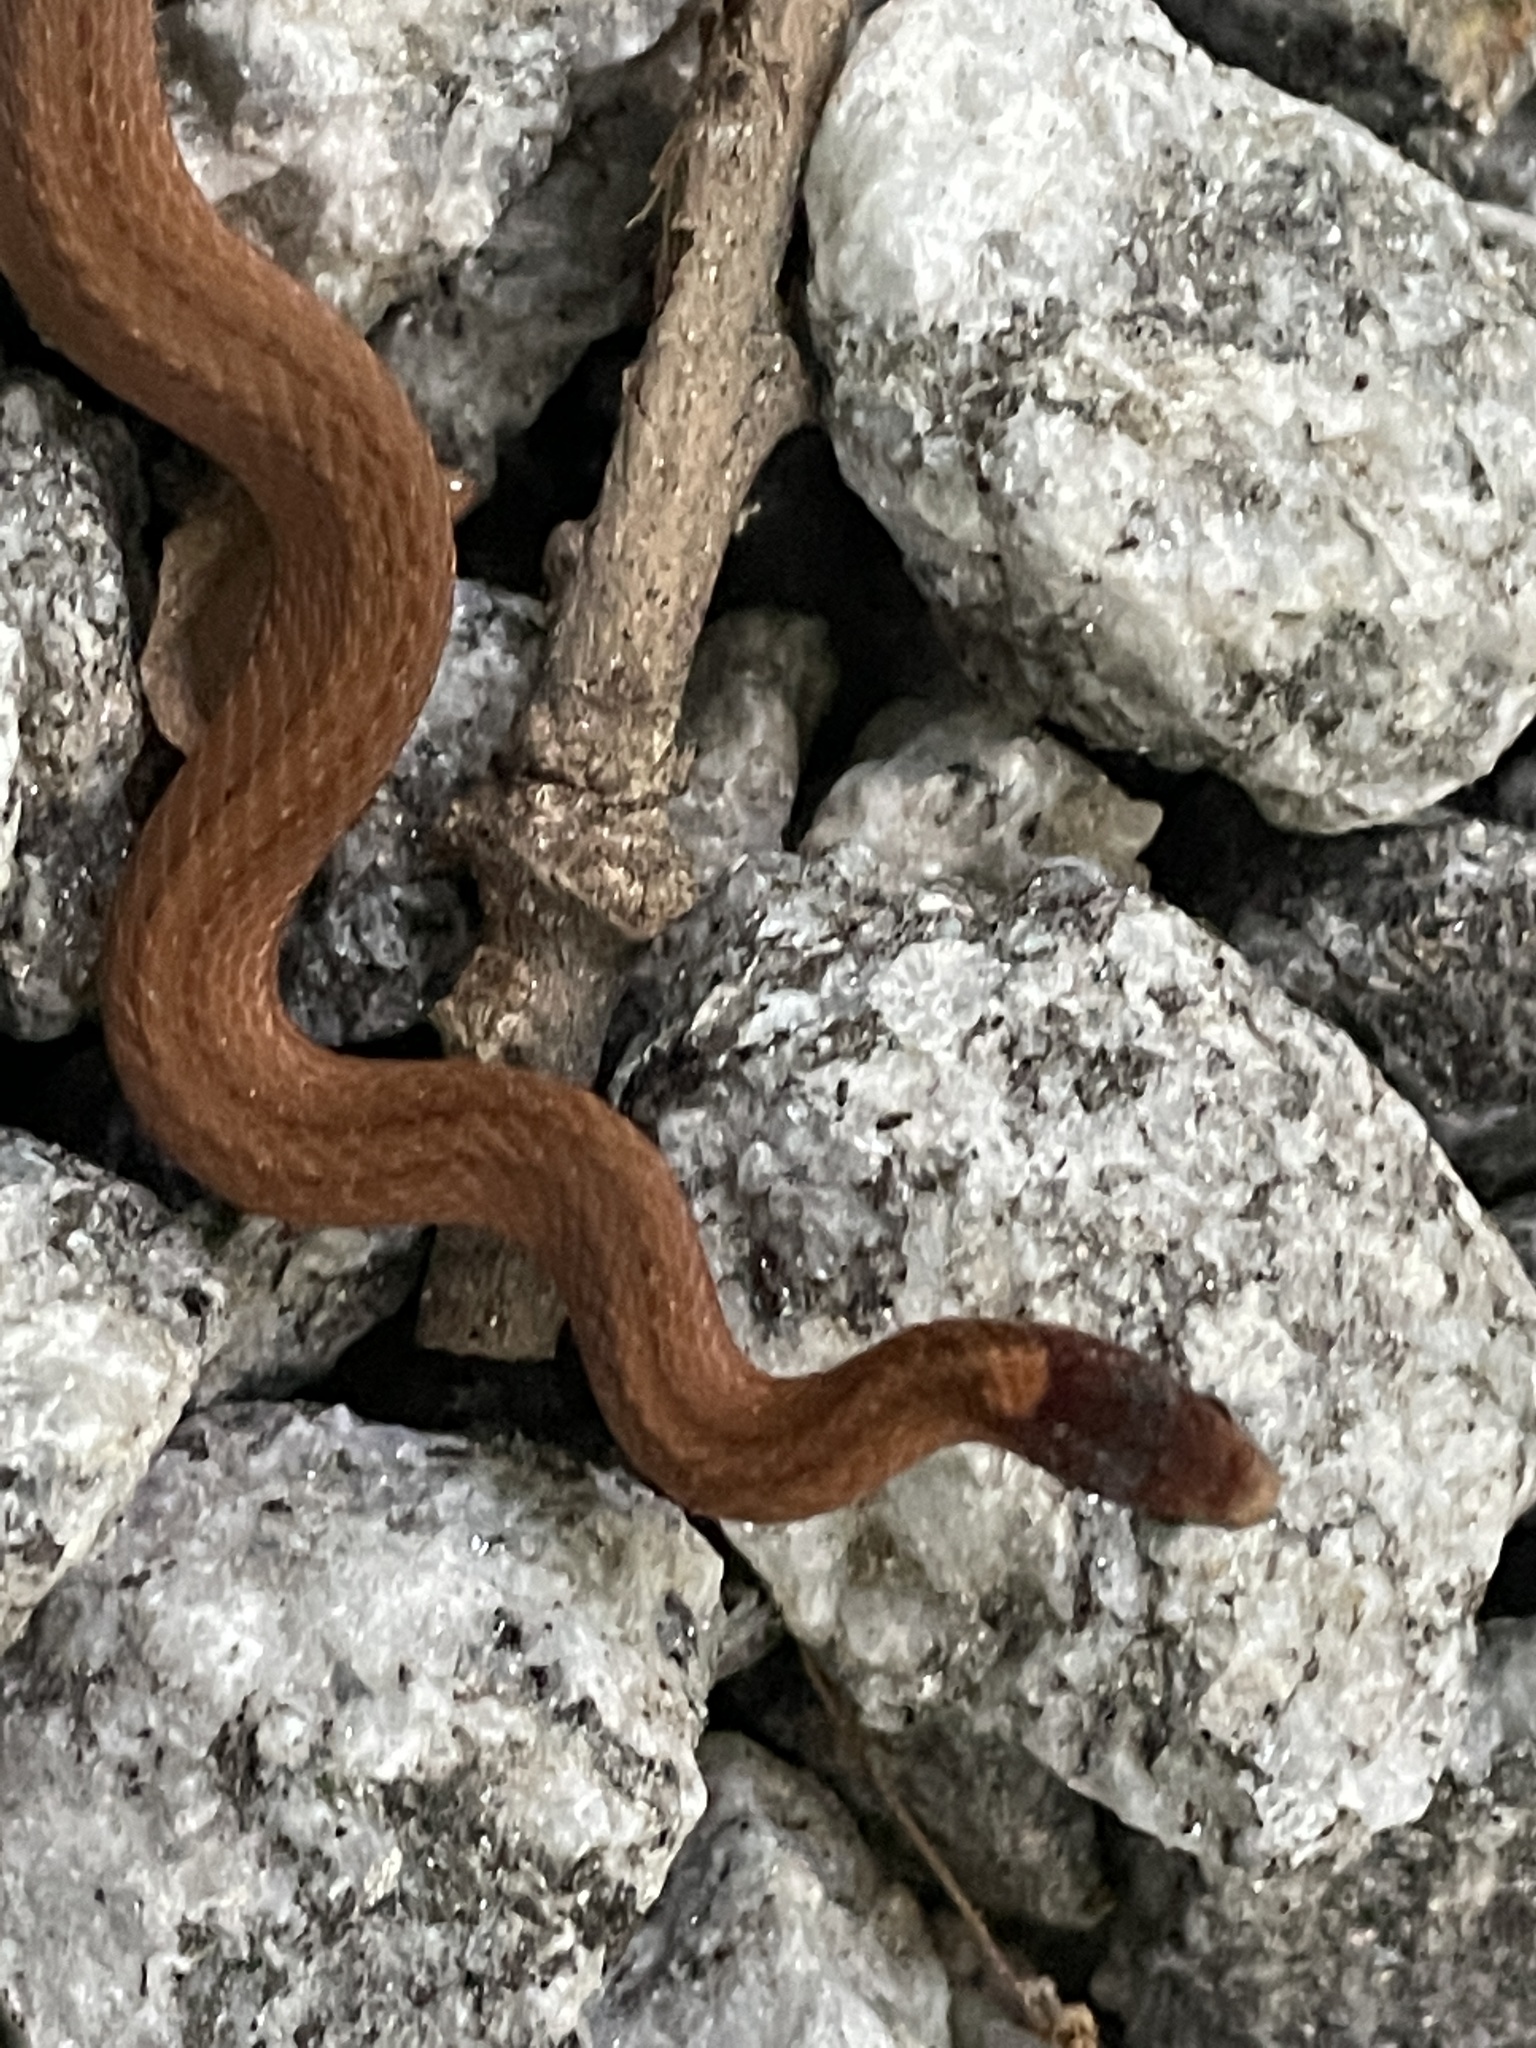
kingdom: Animalia
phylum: Chordata
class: Squamata
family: Colubridae
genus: Storeria
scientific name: Storeria occipitomaculata
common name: Redbelly snake
